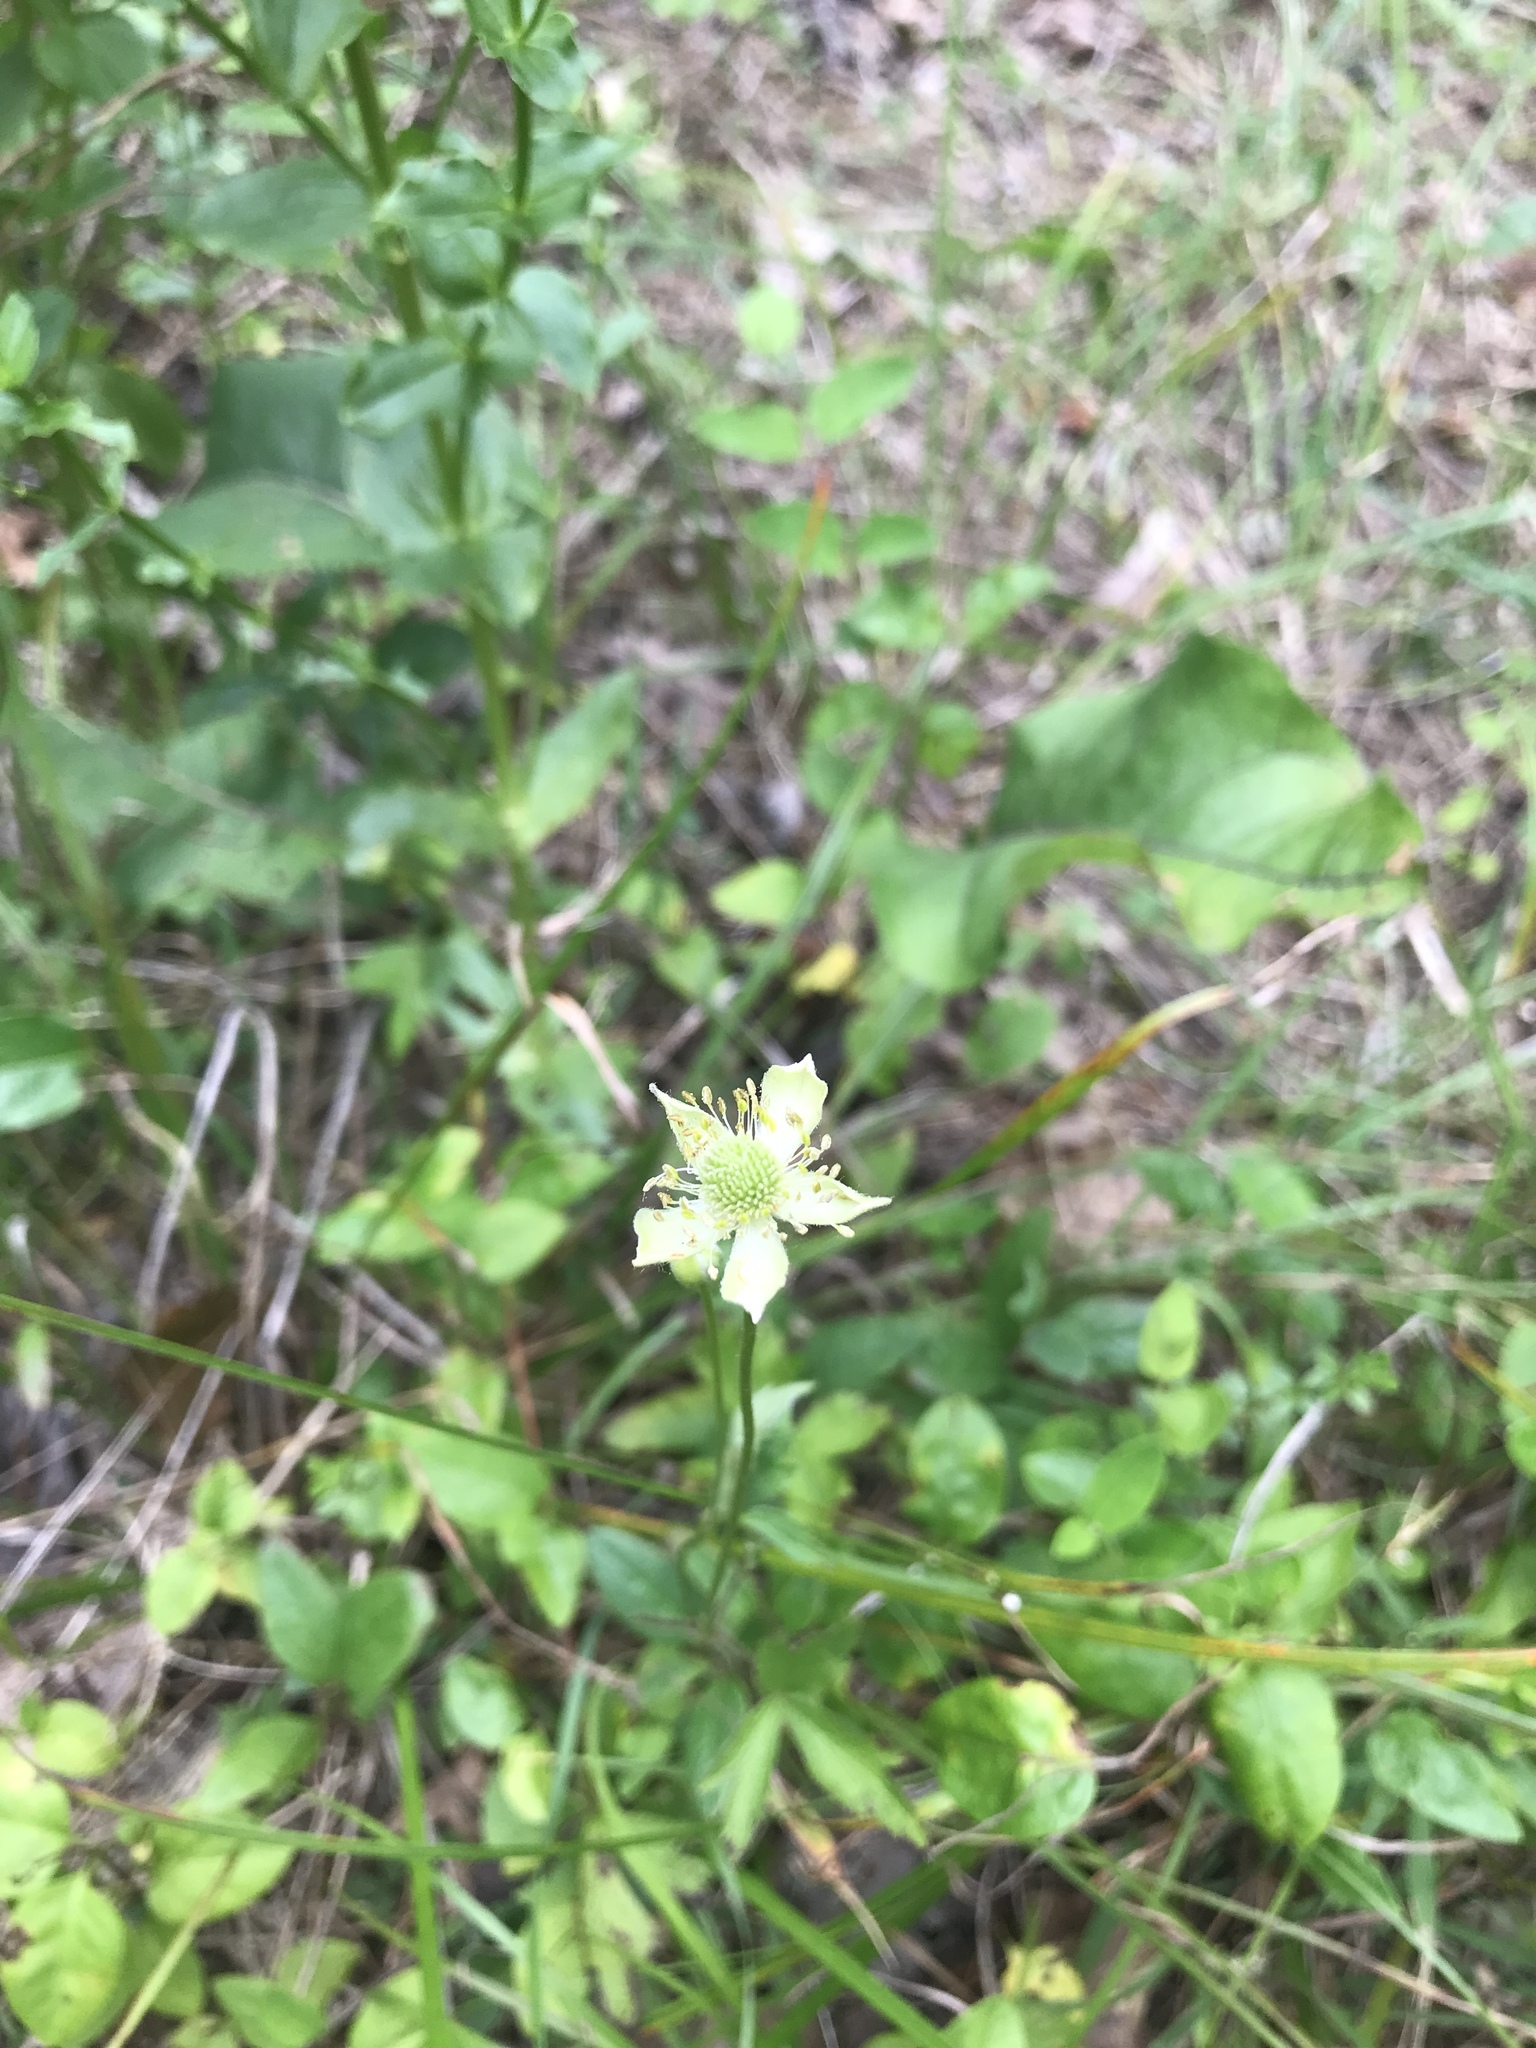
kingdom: Plantae
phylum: Tracheophyta
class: Magnoliopsida
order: Ranunculales
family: Ranunculaceae
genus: Anemone
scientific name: Anemone virginiana
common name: Tall anemone
